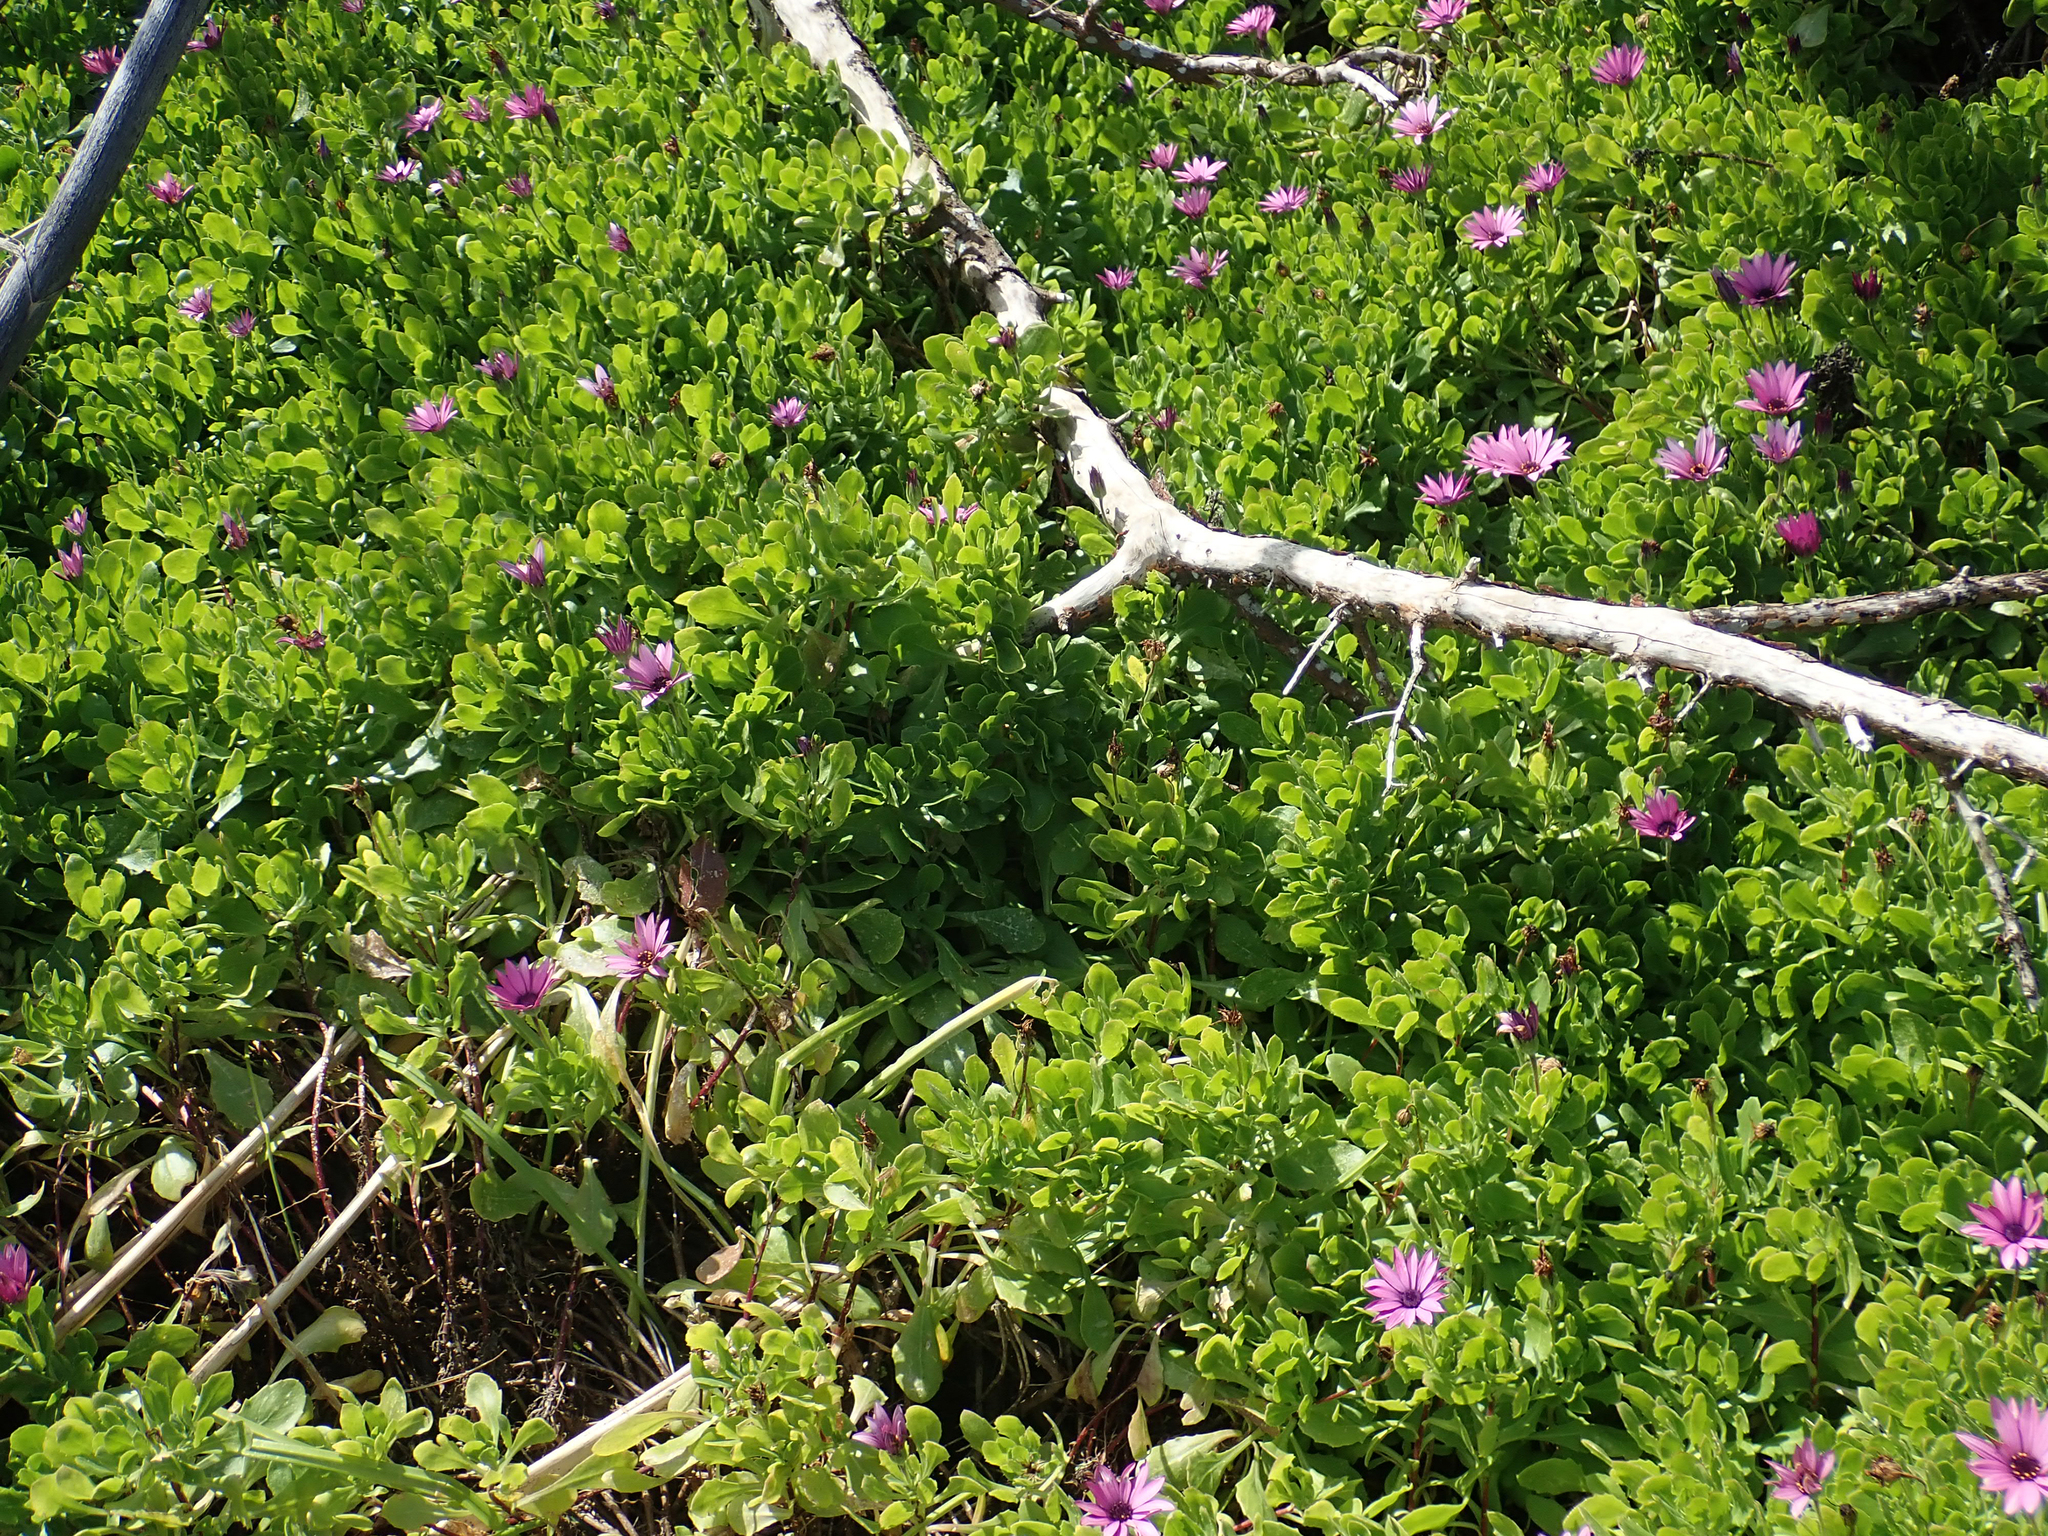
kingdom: Plantae
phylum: Tracheophyta
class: Magnoliopsida
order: Asterales
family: Asteraceae
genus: Dimorphotheca
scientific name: Dimorphotheca jucunda
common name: Osteospermum
